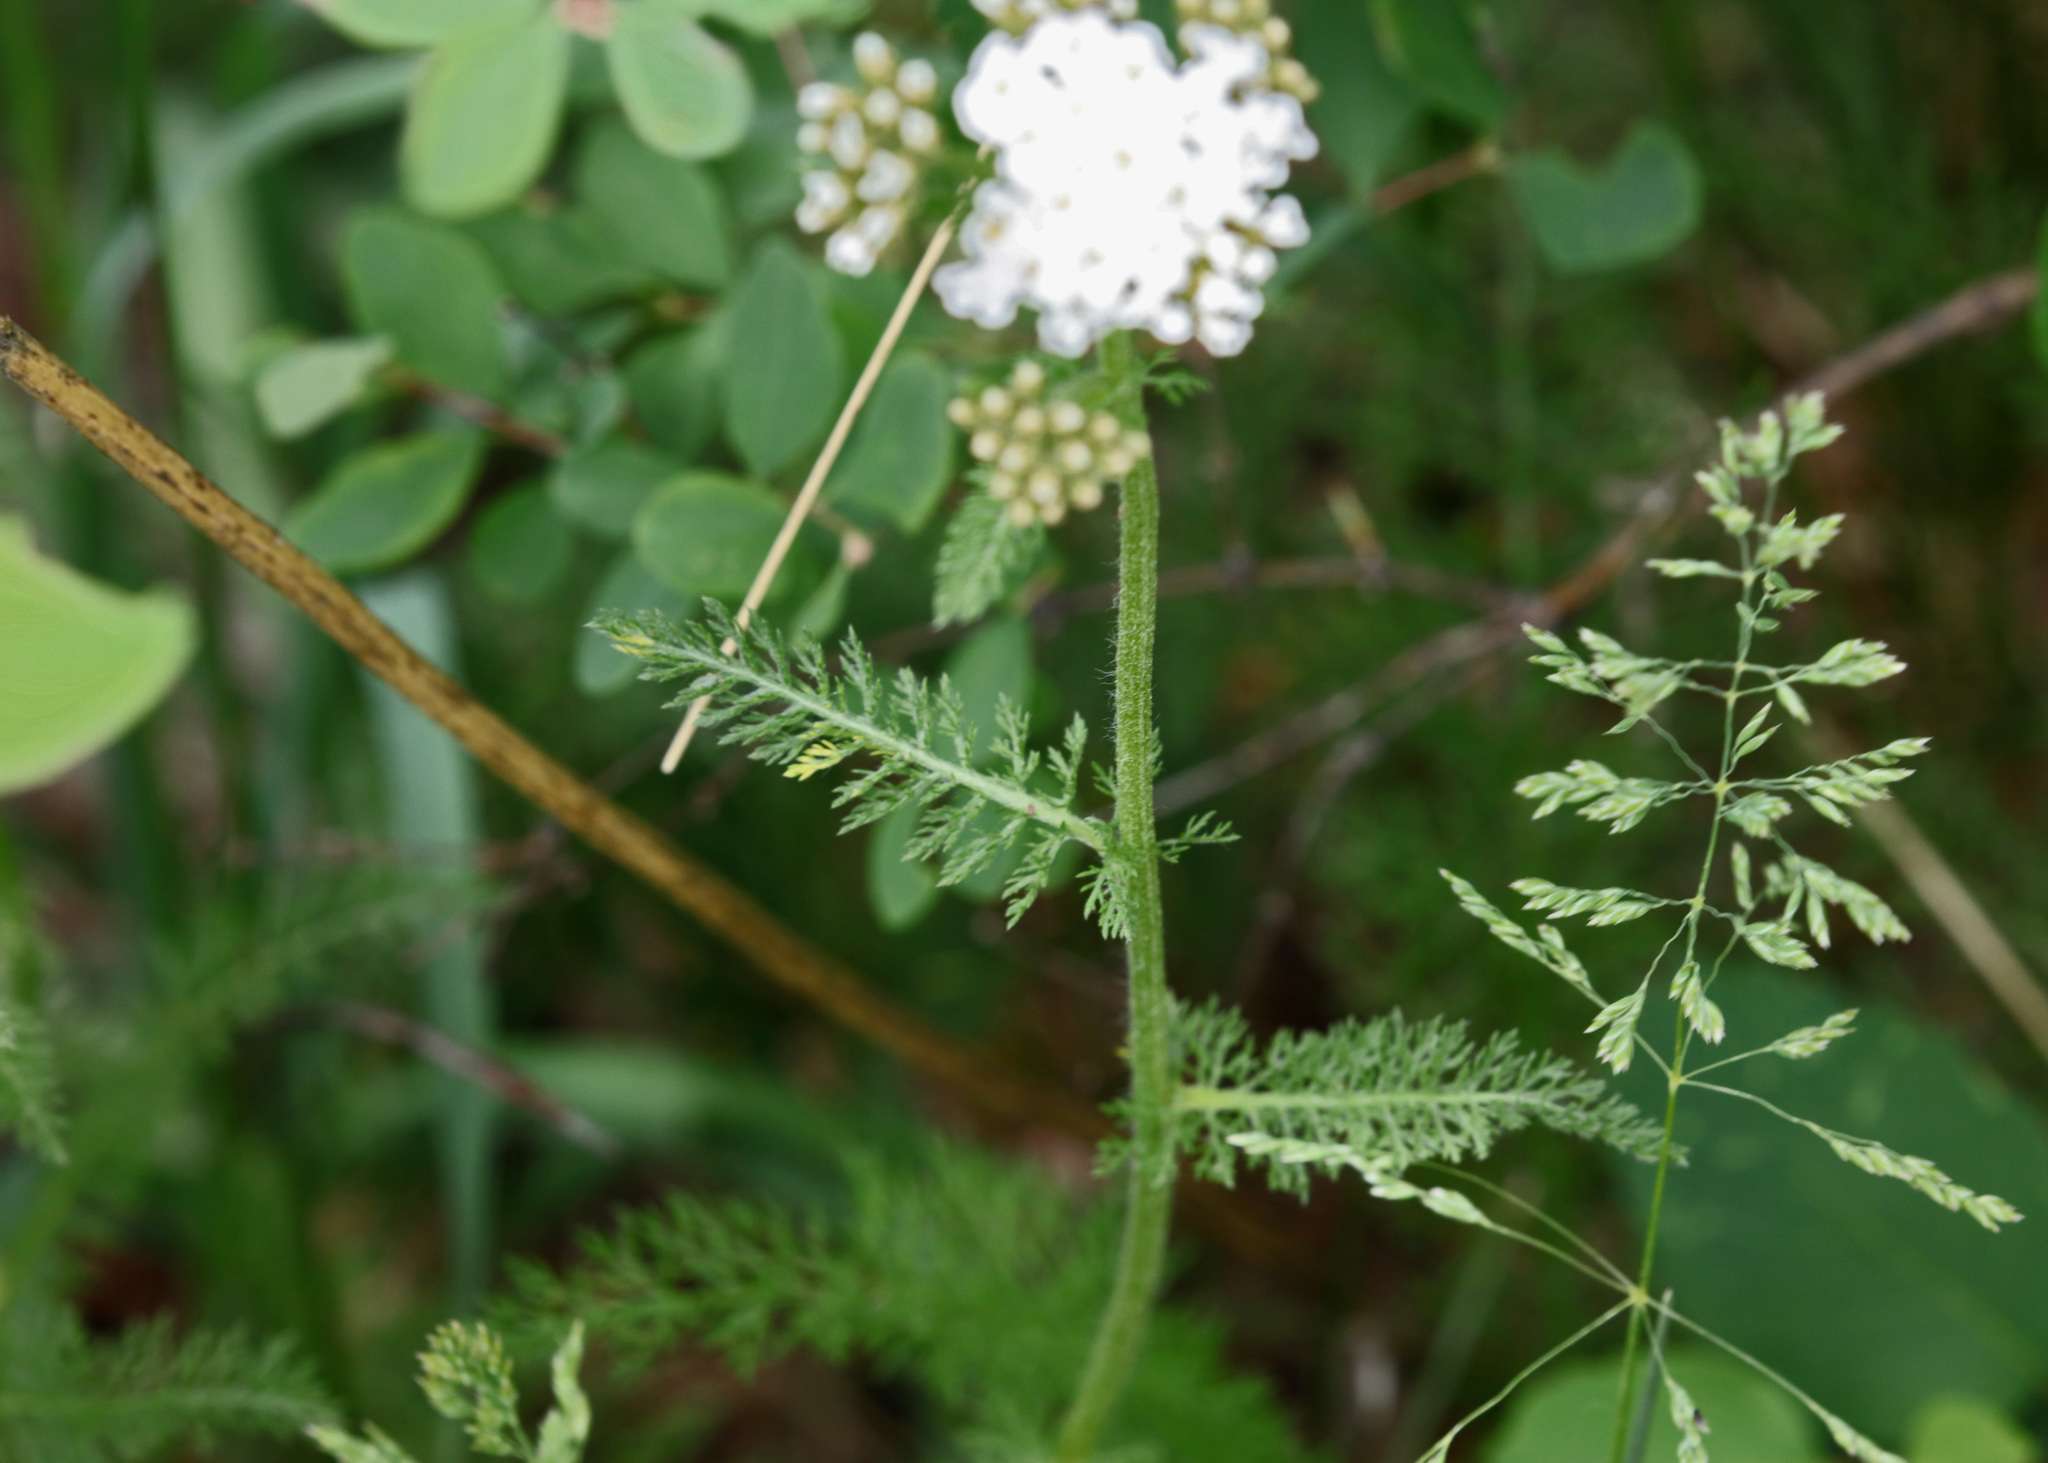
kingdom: Plantae
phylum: Tracheophyta
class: Magnoliopsida
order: Asterales
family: Asteraceae
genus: Achillea
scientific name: Achillea millefolium
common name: Yarrow
